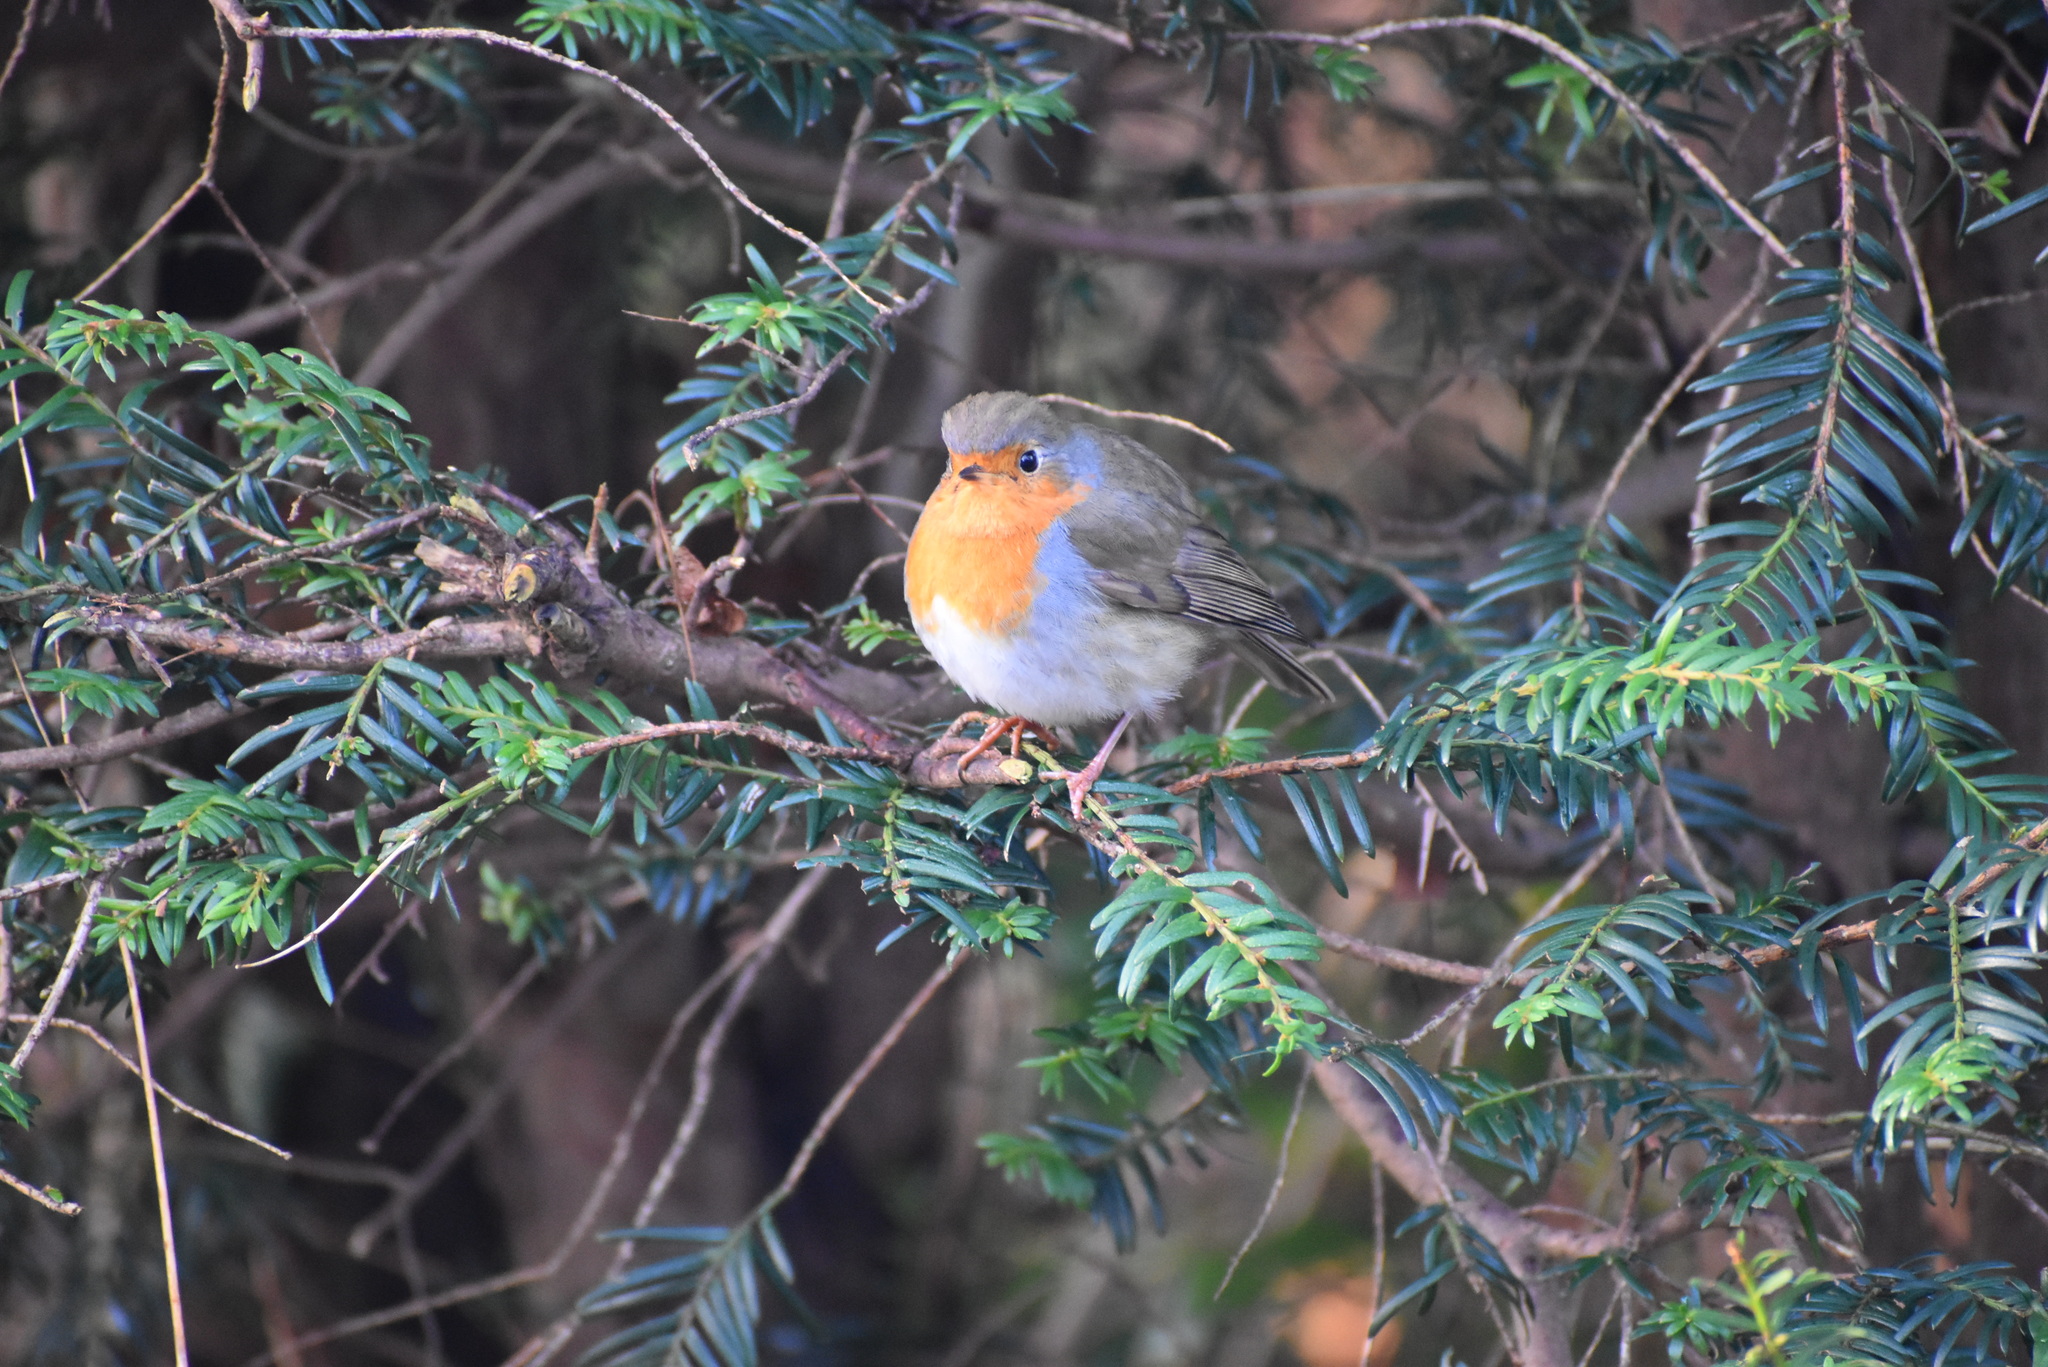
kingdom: Animalia
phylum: Chordata
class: Aves
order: Passeriformes
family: Muscicapidae
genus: Erithacus
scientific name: Erithacus rubecula
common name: European robin
